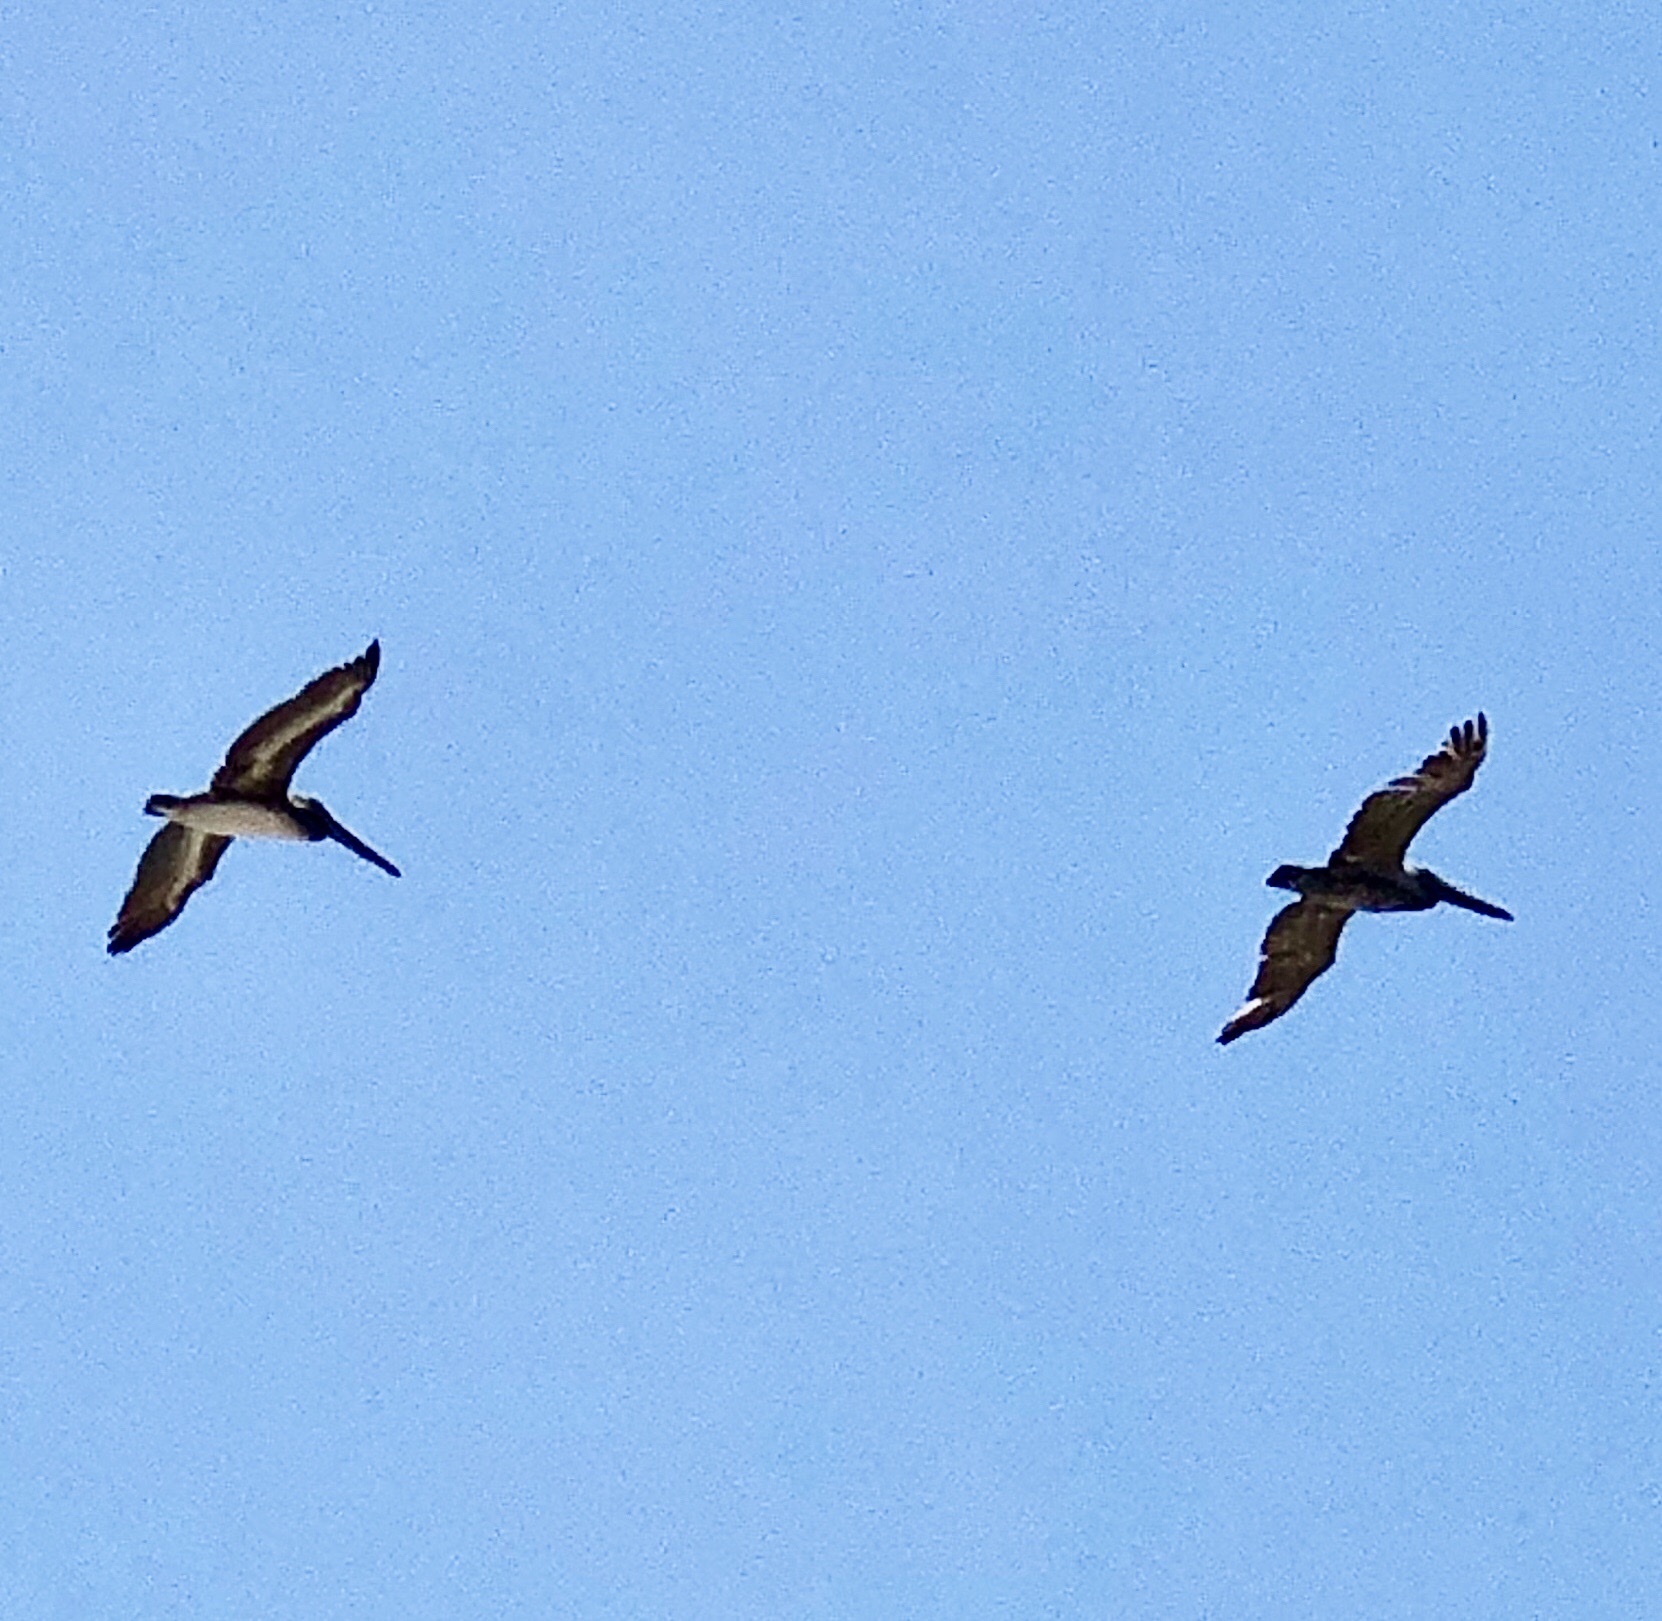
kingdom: Animalia
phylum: Chordata
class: Aves
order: Pelecaniformes
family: Pelecanidae
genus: Pelecanus
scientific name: Pelecanus occidentalis
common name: Brown pelican
